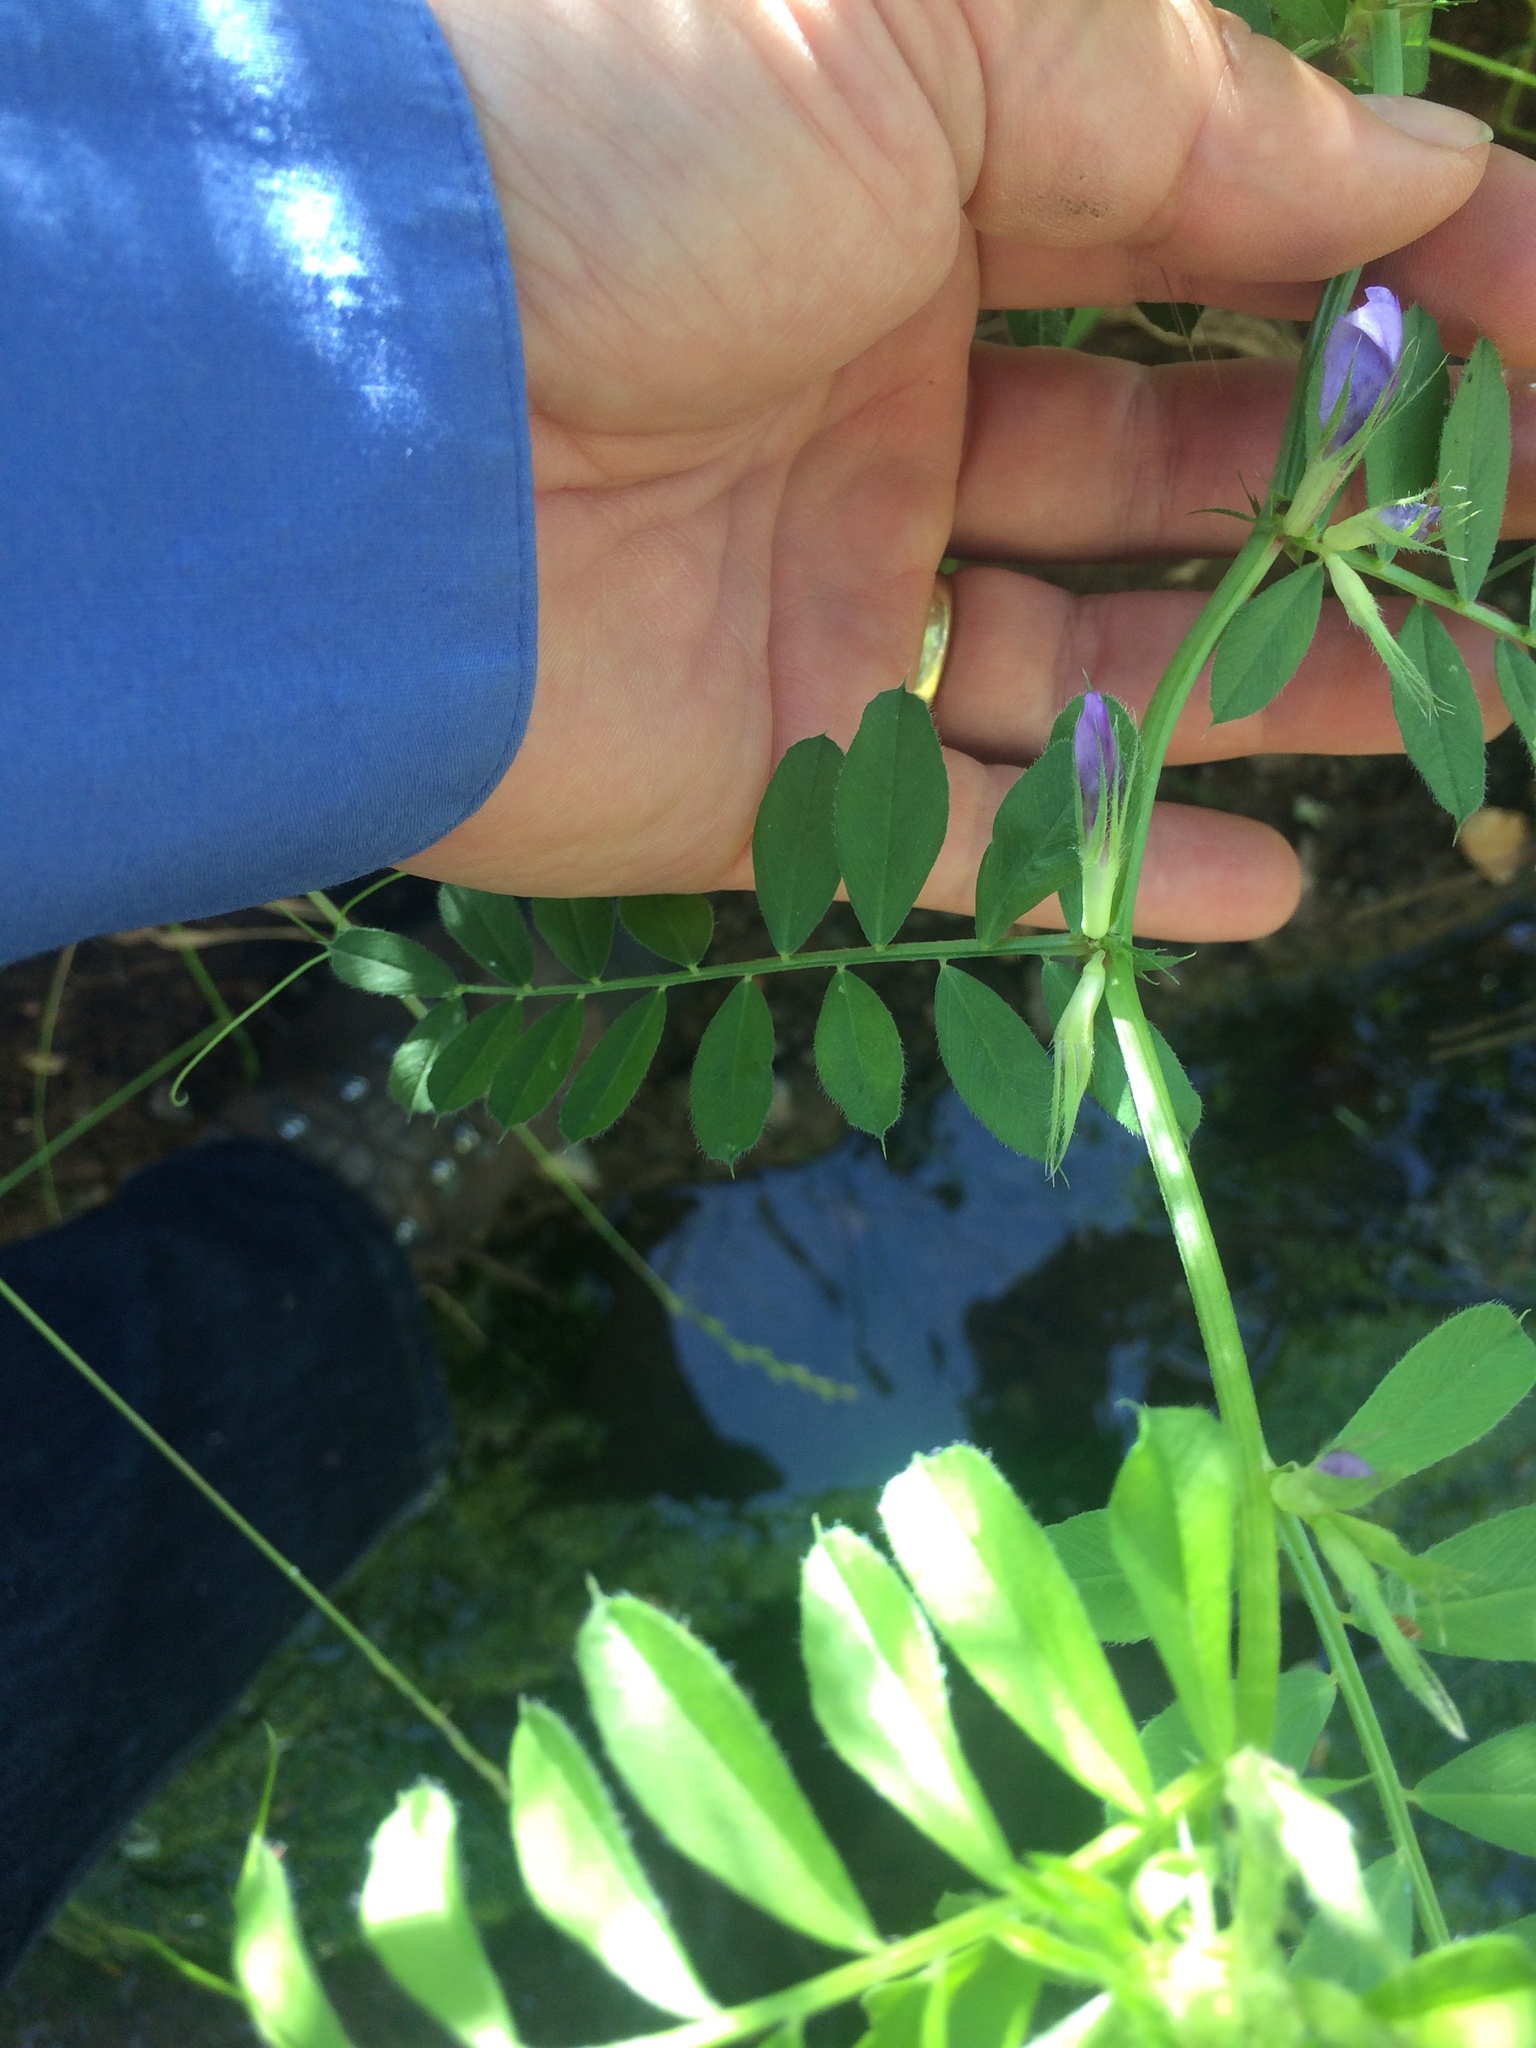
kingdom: Plantae
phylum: Tracheophyta
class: Magnoliopsida
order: Fabales
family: Fabaceae
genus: Vicia
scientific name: Vicia sativa
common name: Garden vetch
